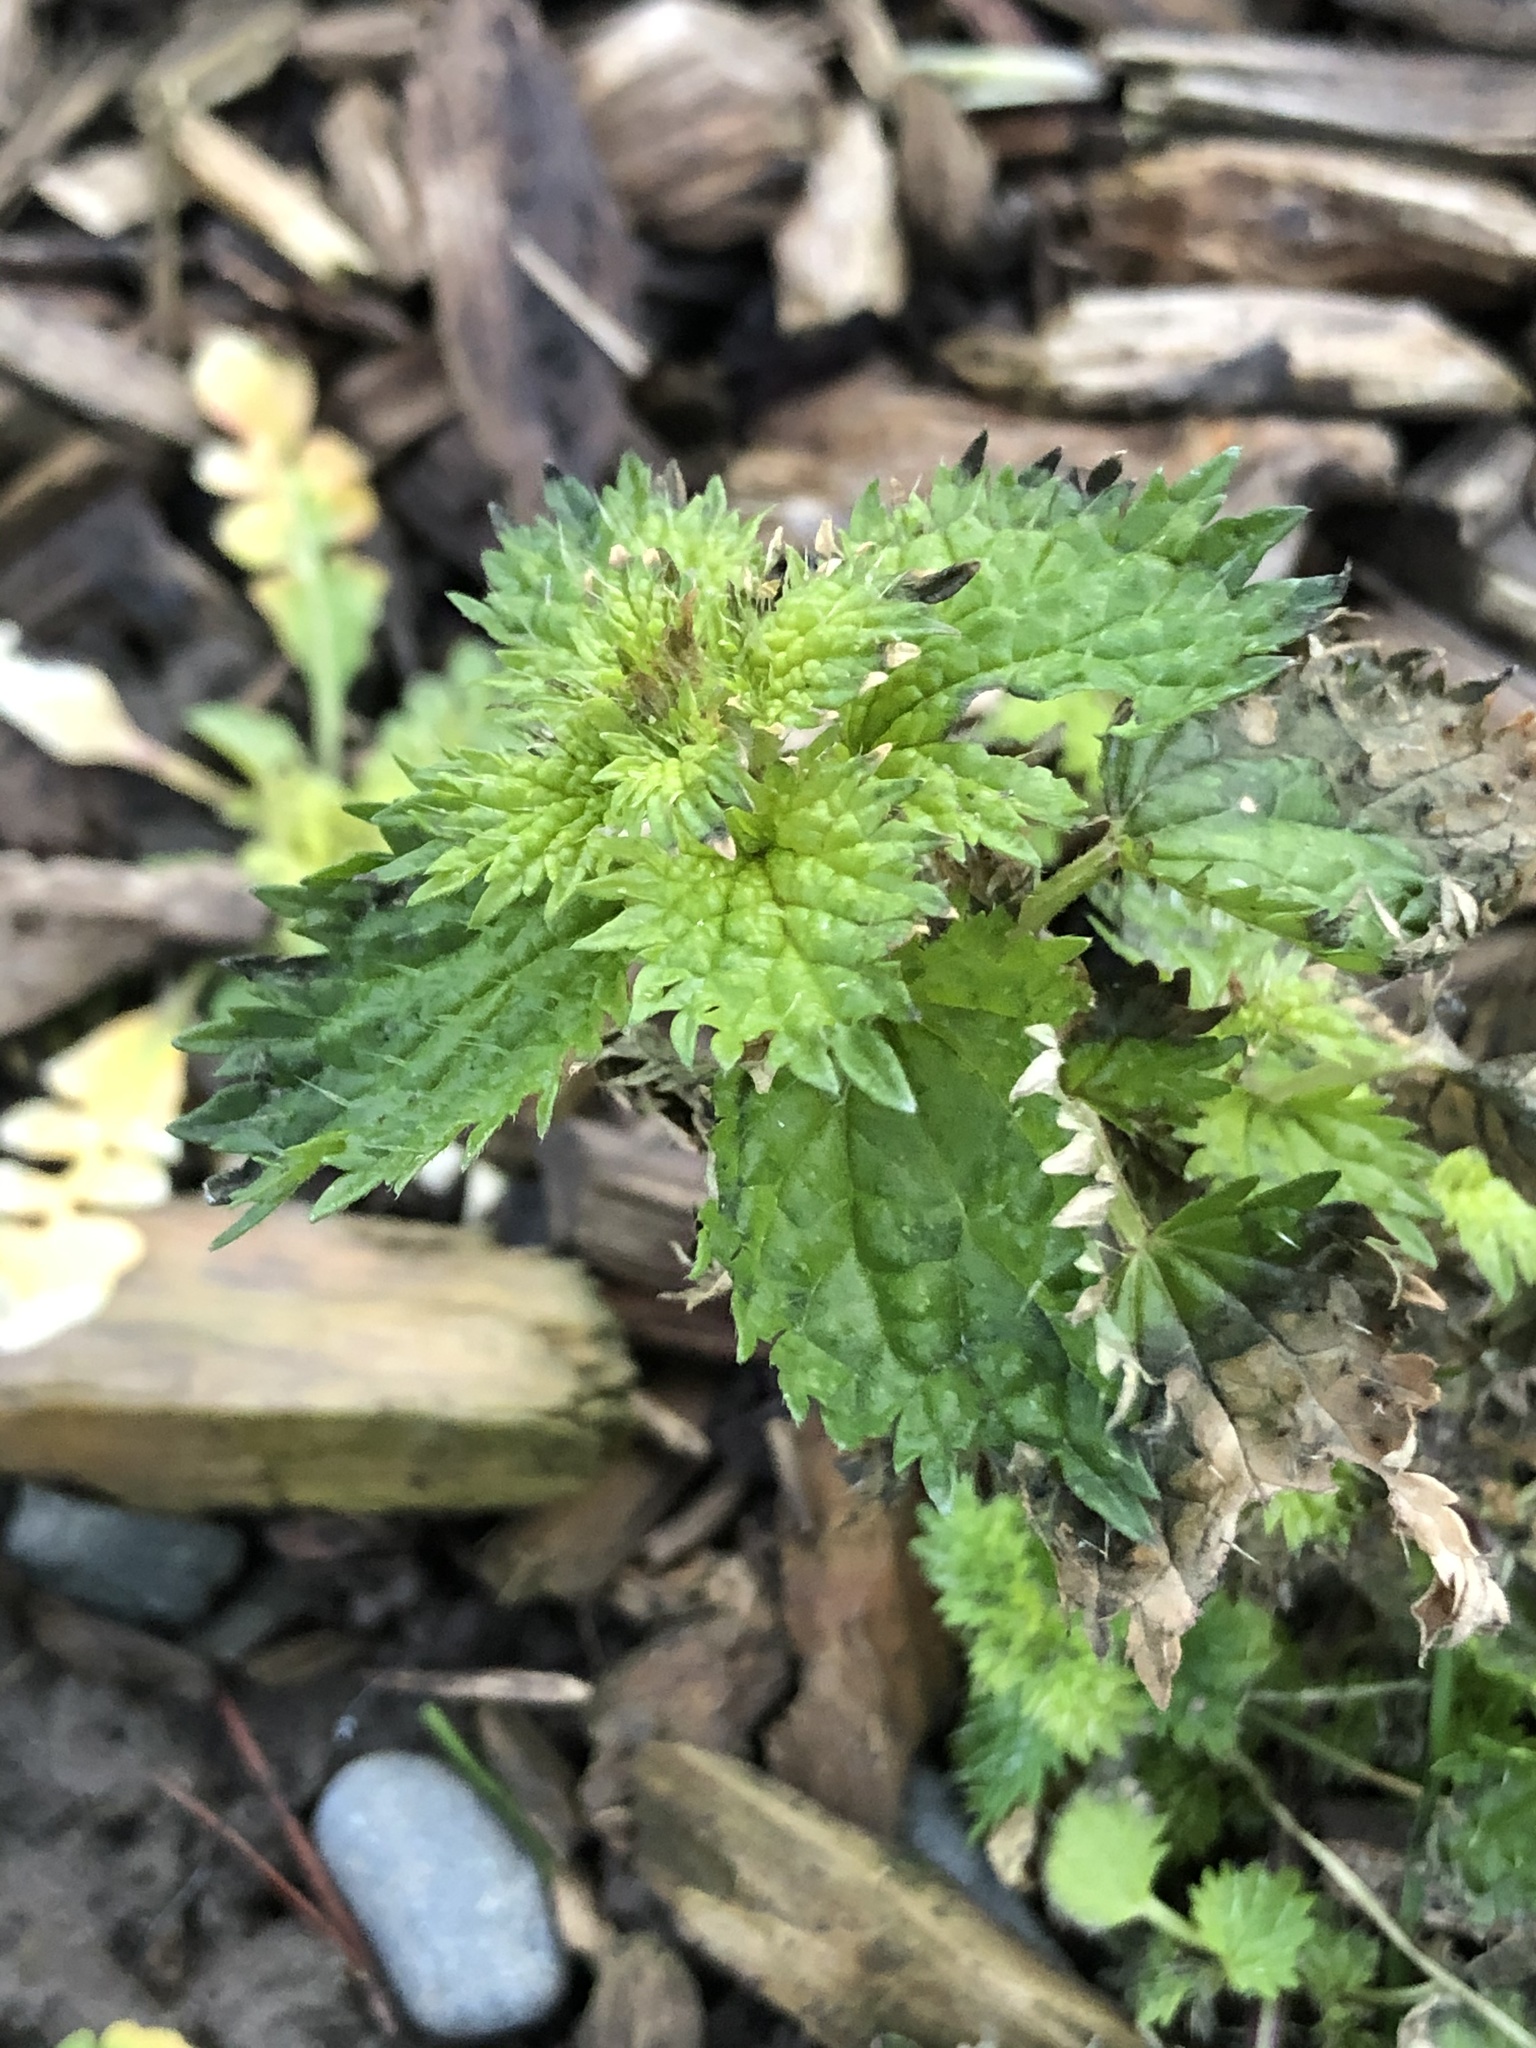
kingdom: Plantae
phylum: Tracheophyta
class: Magnoliopsida
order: Rosales
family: Urticaceae
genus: Urtica
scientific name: Urtica urens
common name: Dwarf nettle
